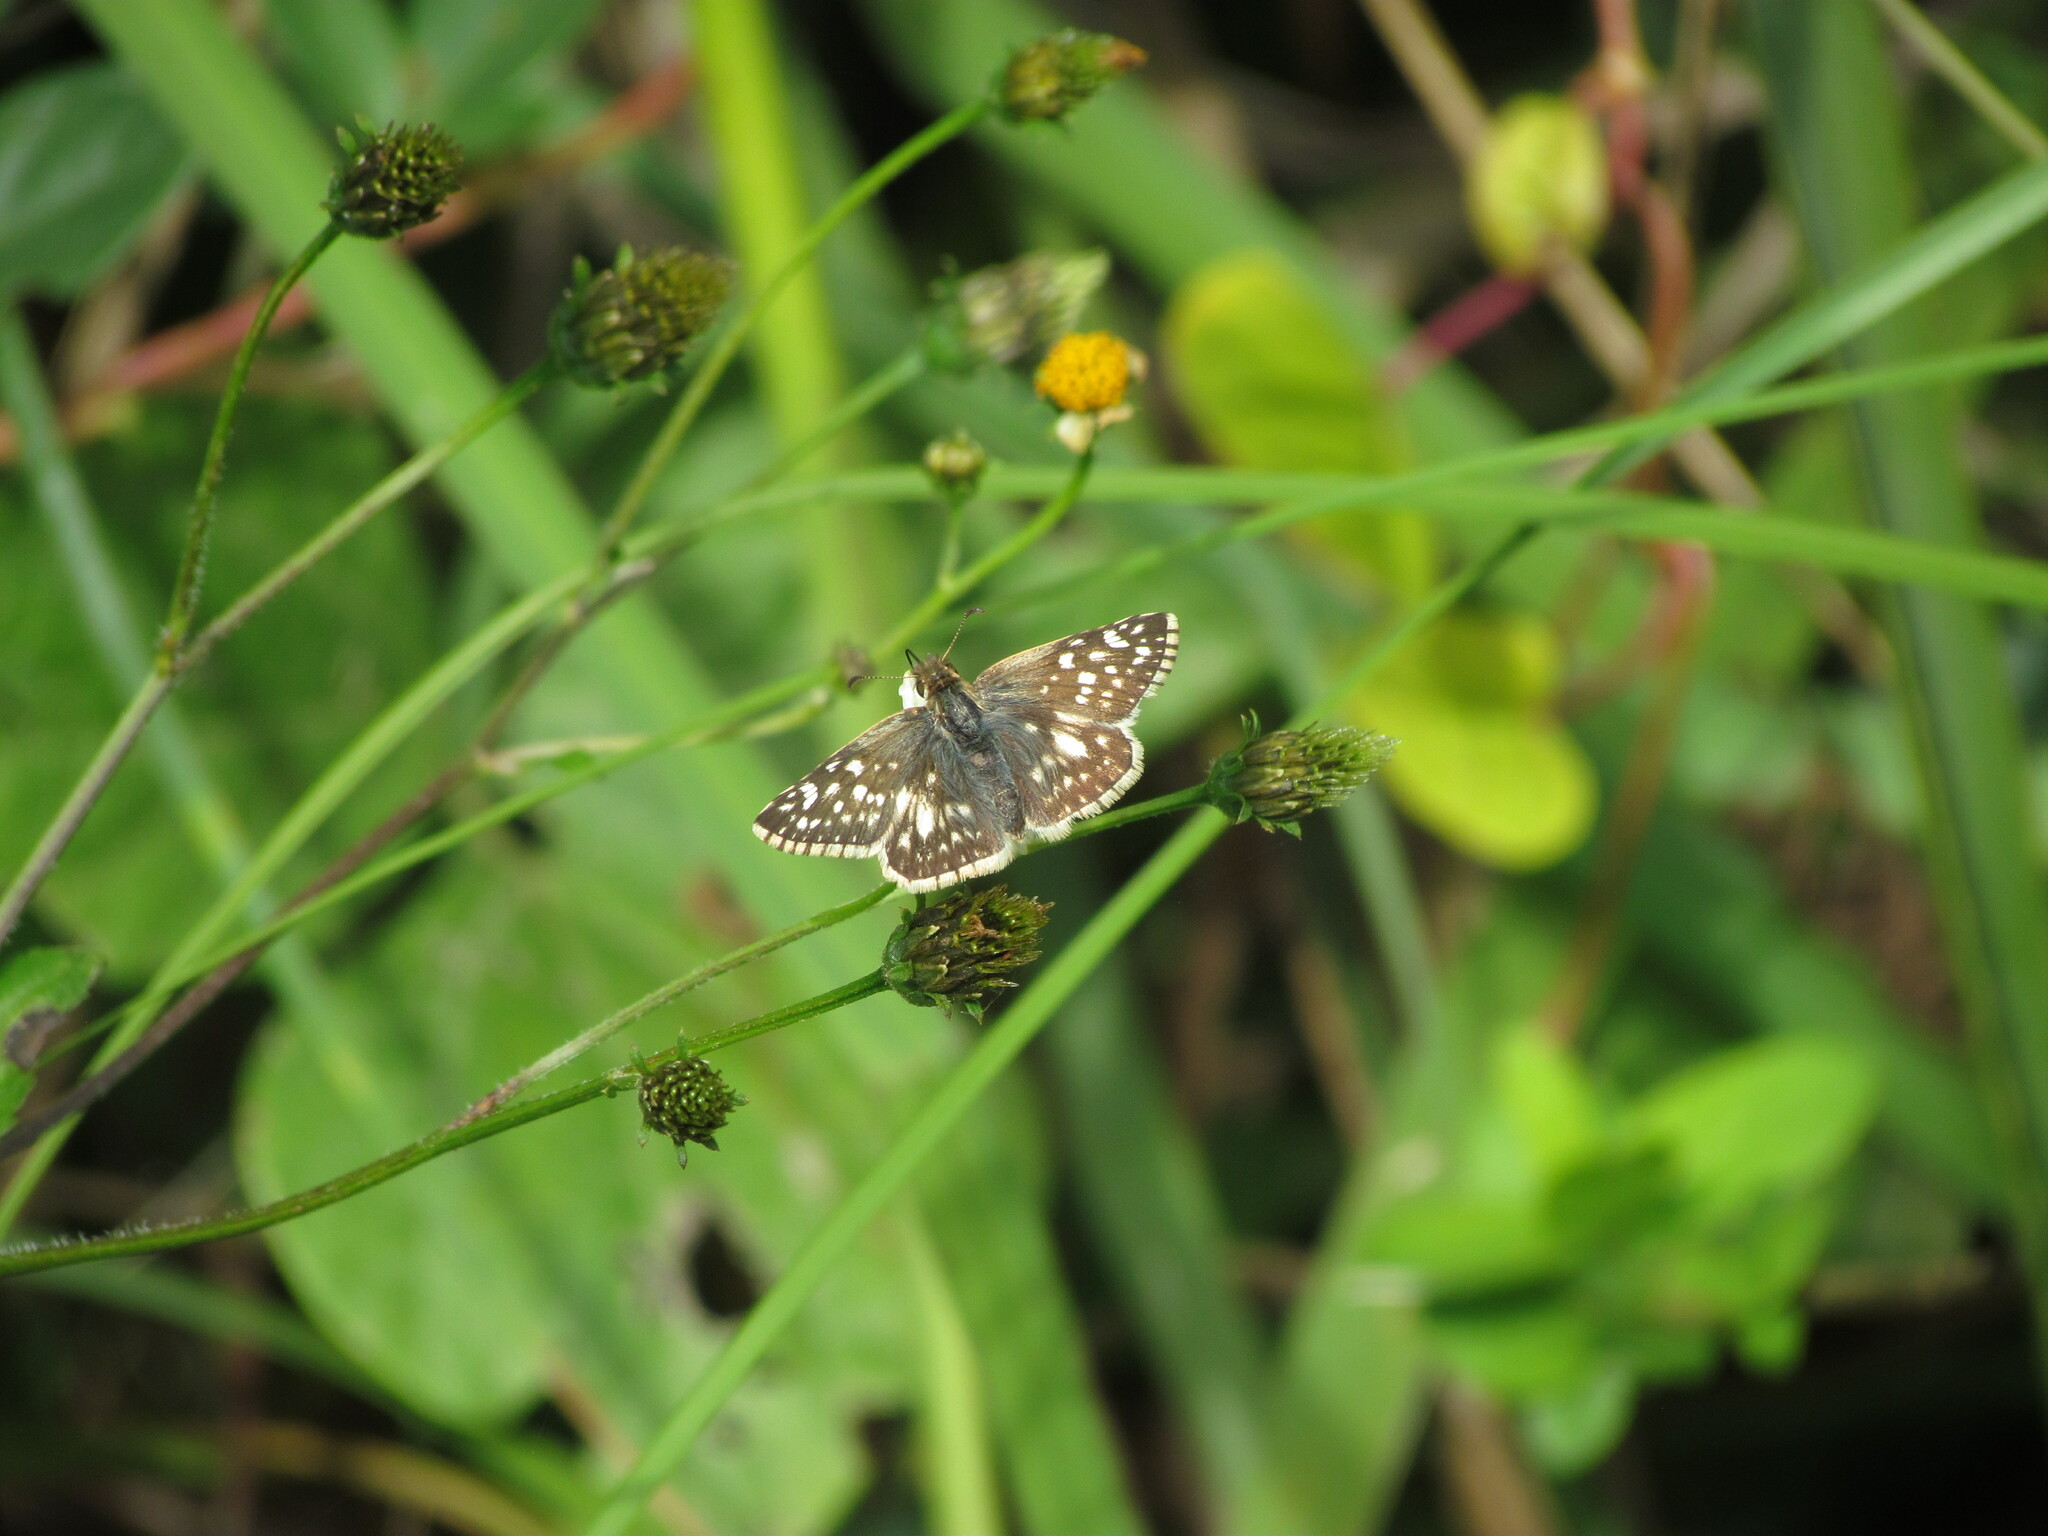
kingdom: Animalia
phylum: Arthropoda
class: Insecta
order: Lepidoptera
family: Hesperiidae
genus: Heliopetes
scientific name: Heliopetes americanus
